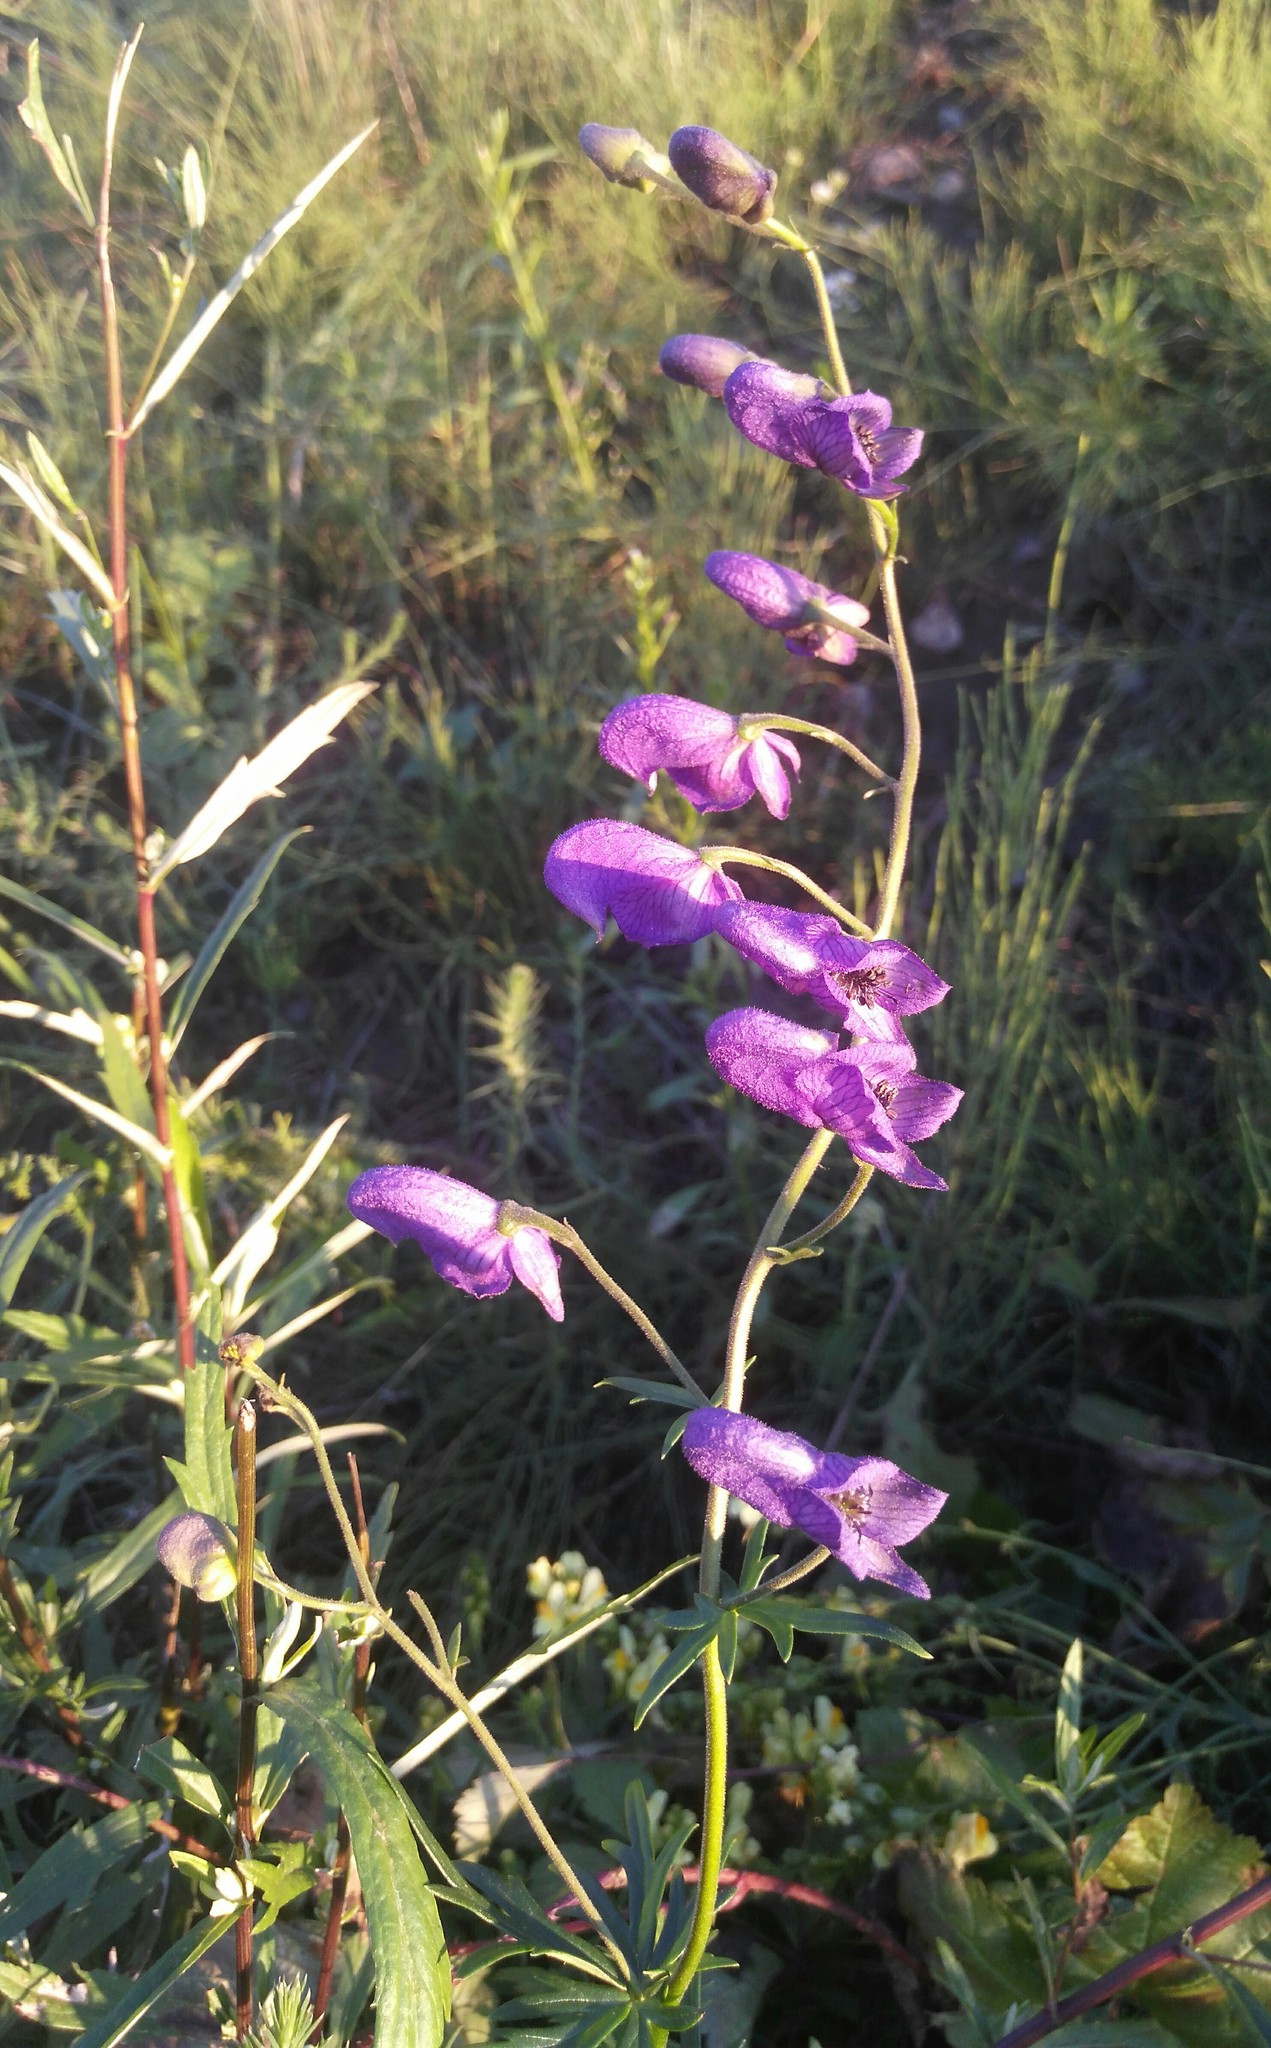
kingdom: Plantae
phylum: Tracheophyta
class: Magnoliopsida
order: Ranunculales
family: Ranunculaceae
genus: Aconitum
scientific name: Aconitum volubile
